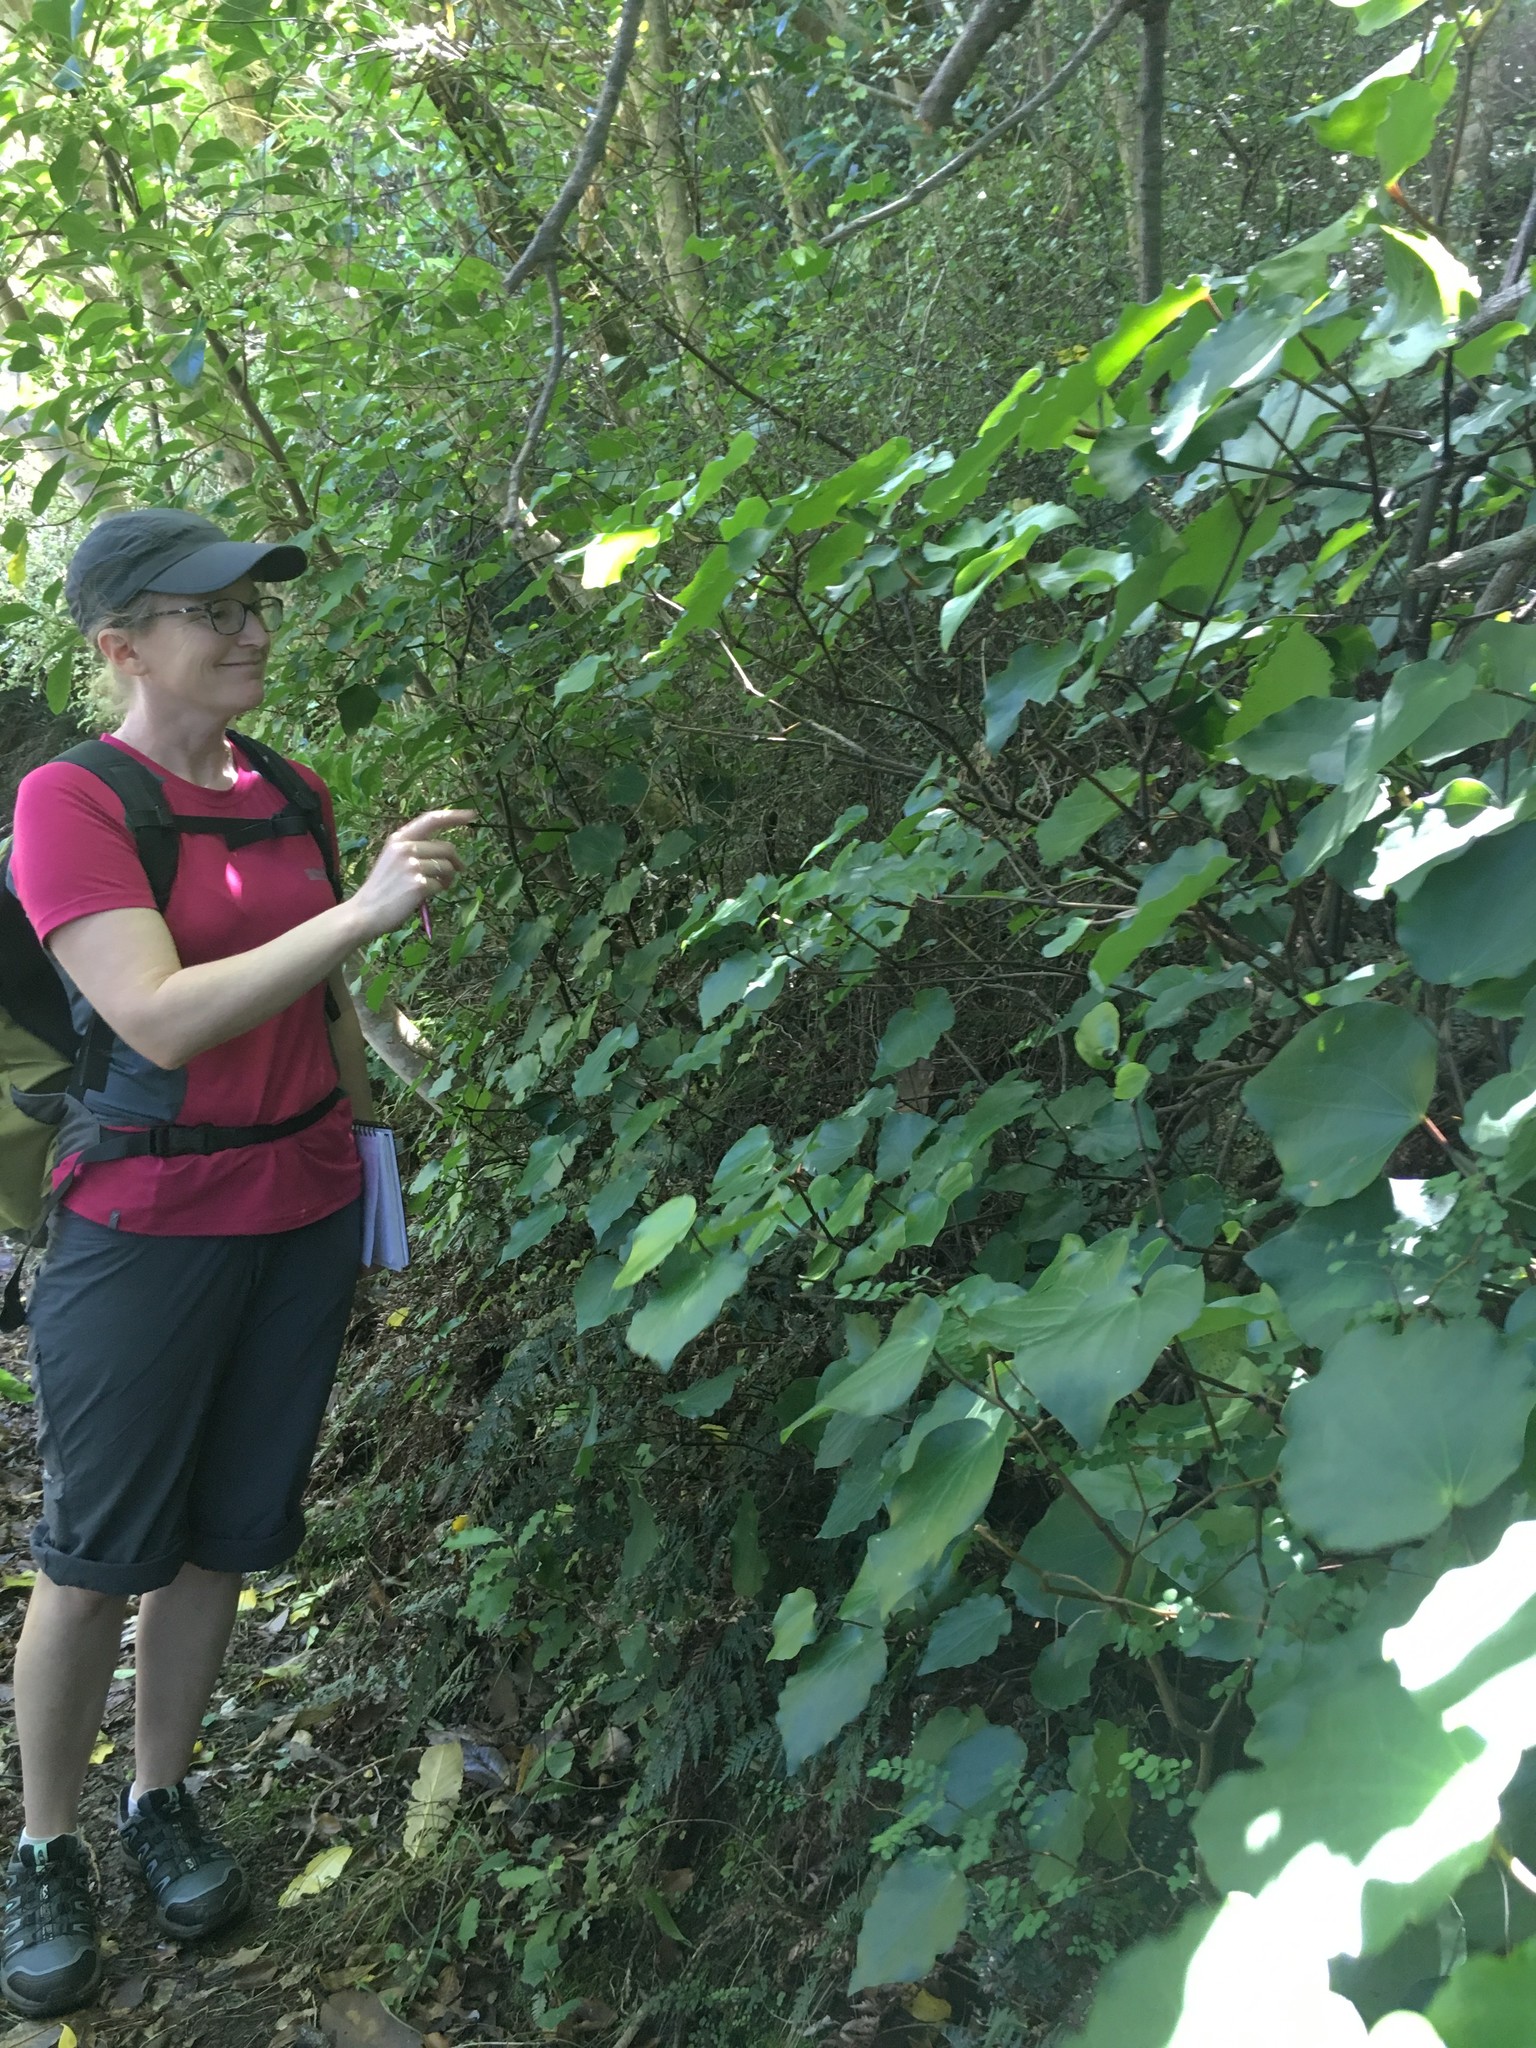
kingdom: Plantae
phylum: Tracheophyta
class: Magnoliopsida
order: Piperales
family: Piperaceae
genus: Macropiper
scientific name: Macropiper excelsum
